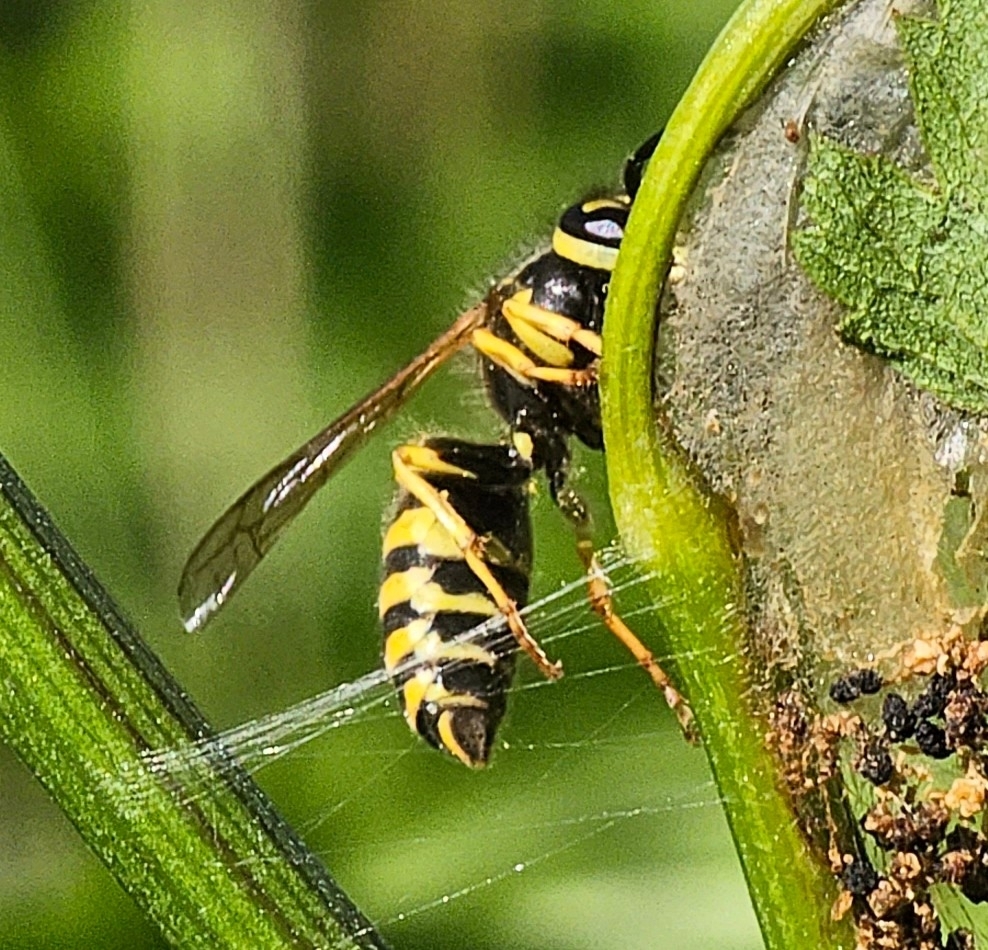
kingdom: Animalia
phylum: Arthropoda
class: Insecta
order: Hymenoptera
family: Vespidae
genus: Vespula
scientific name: Vespula
